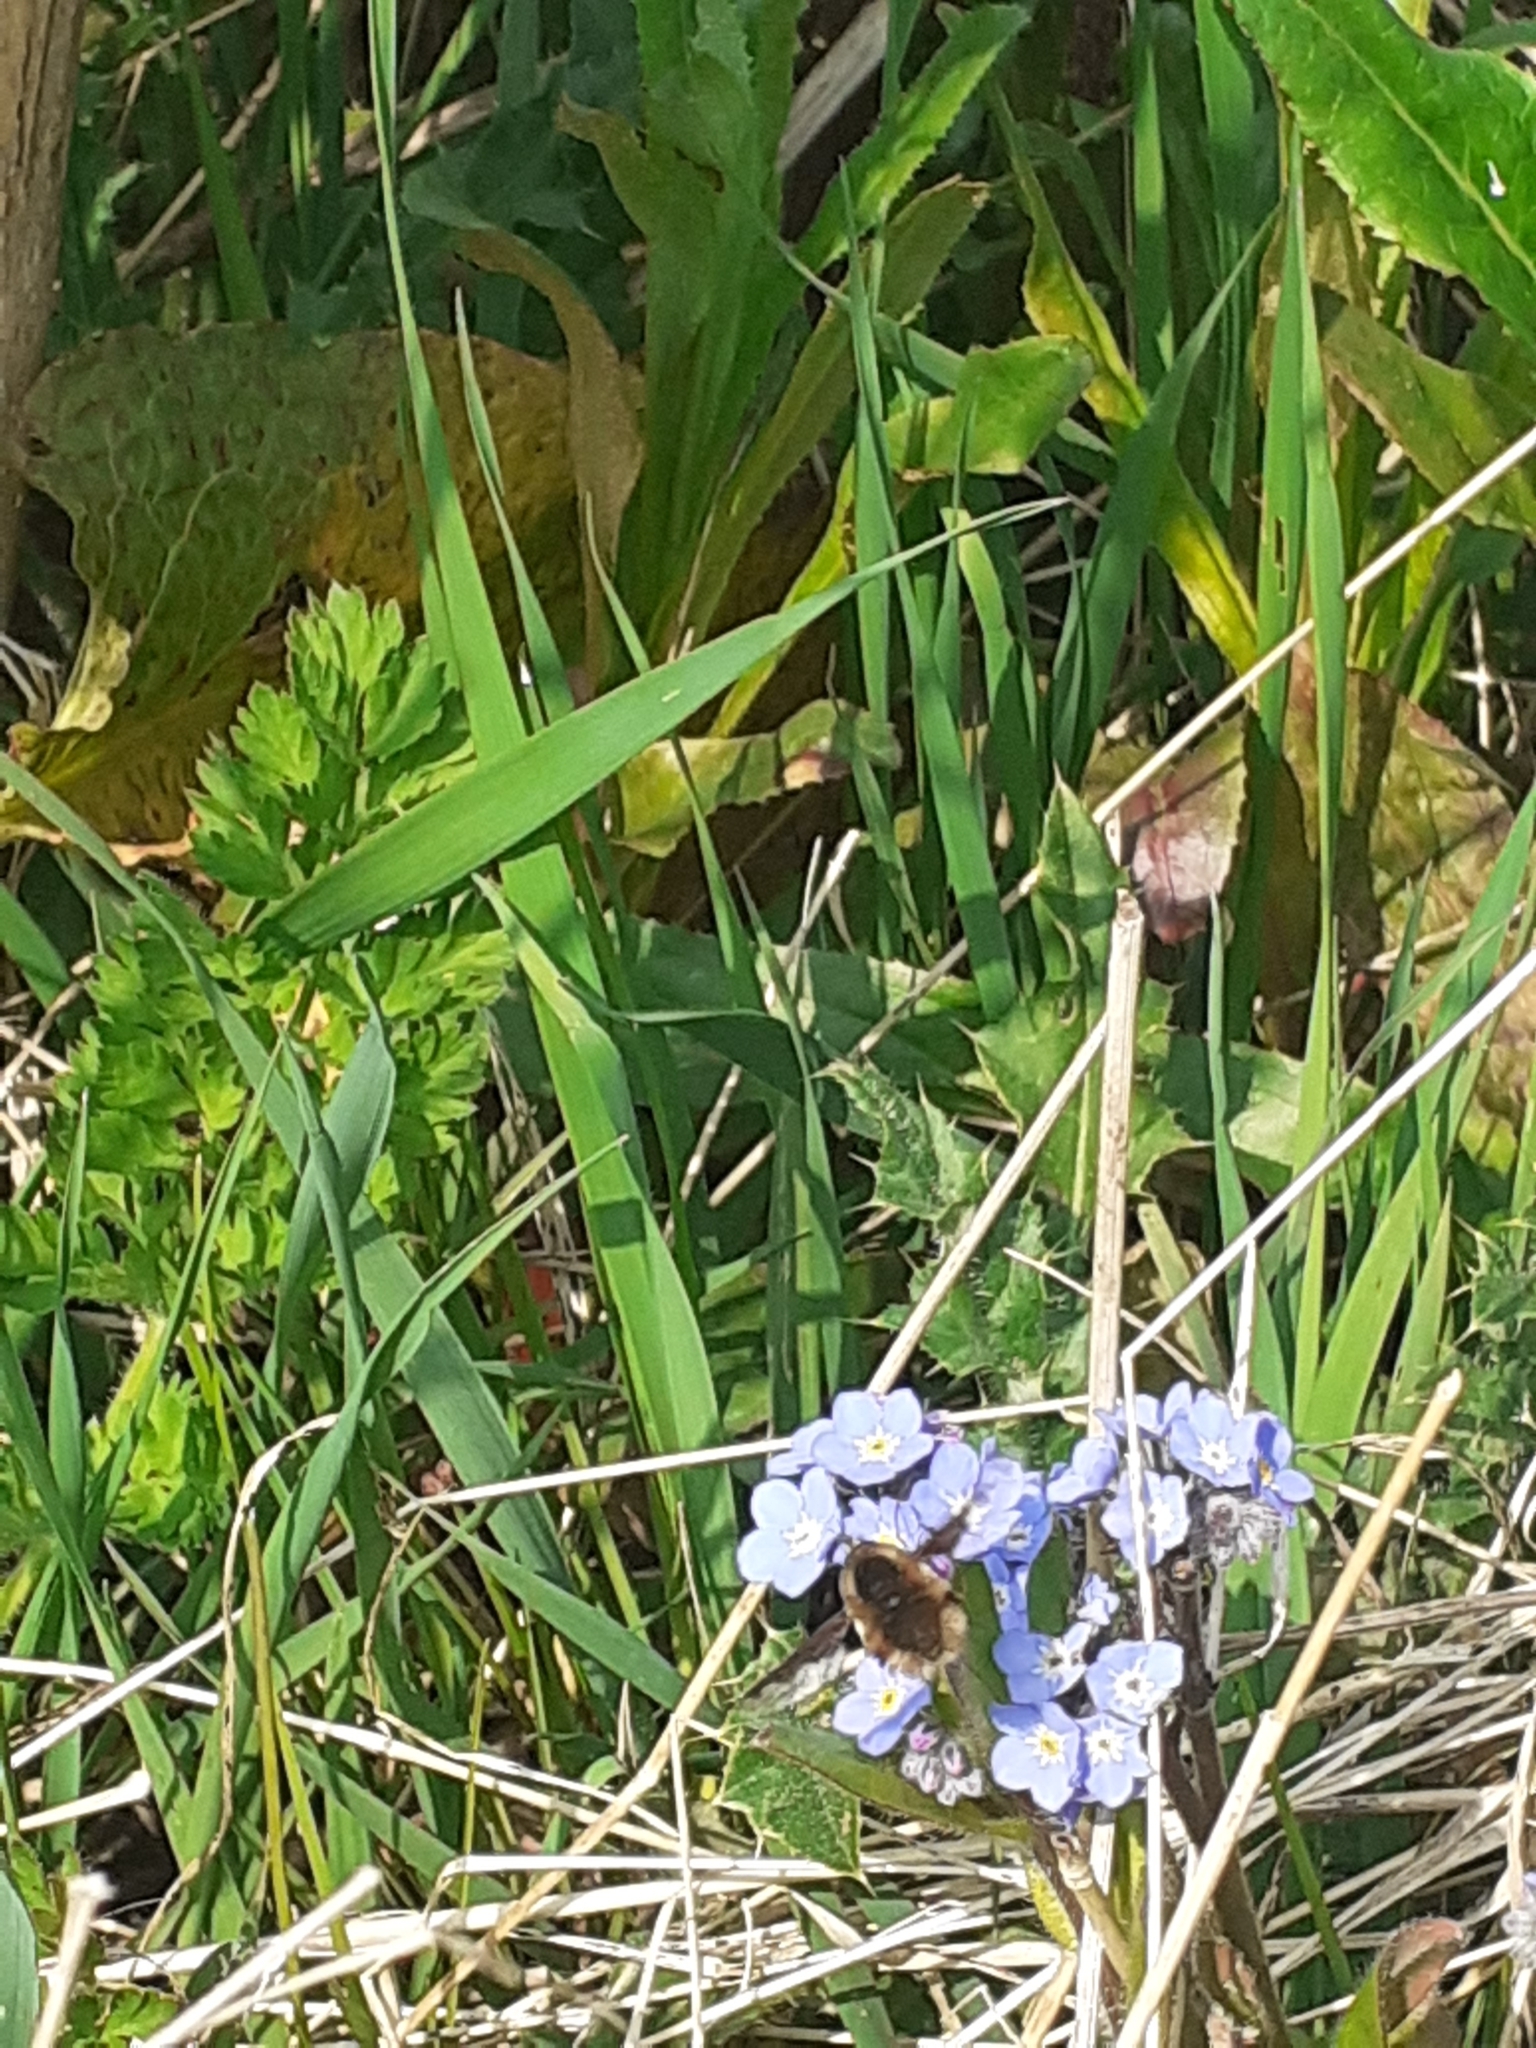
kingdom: Animalia
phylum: Arthropoda
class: Insecta
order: Diptera
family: Bombyliidae
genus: Bombylius
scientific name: Bombylius major
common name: Bee fly
